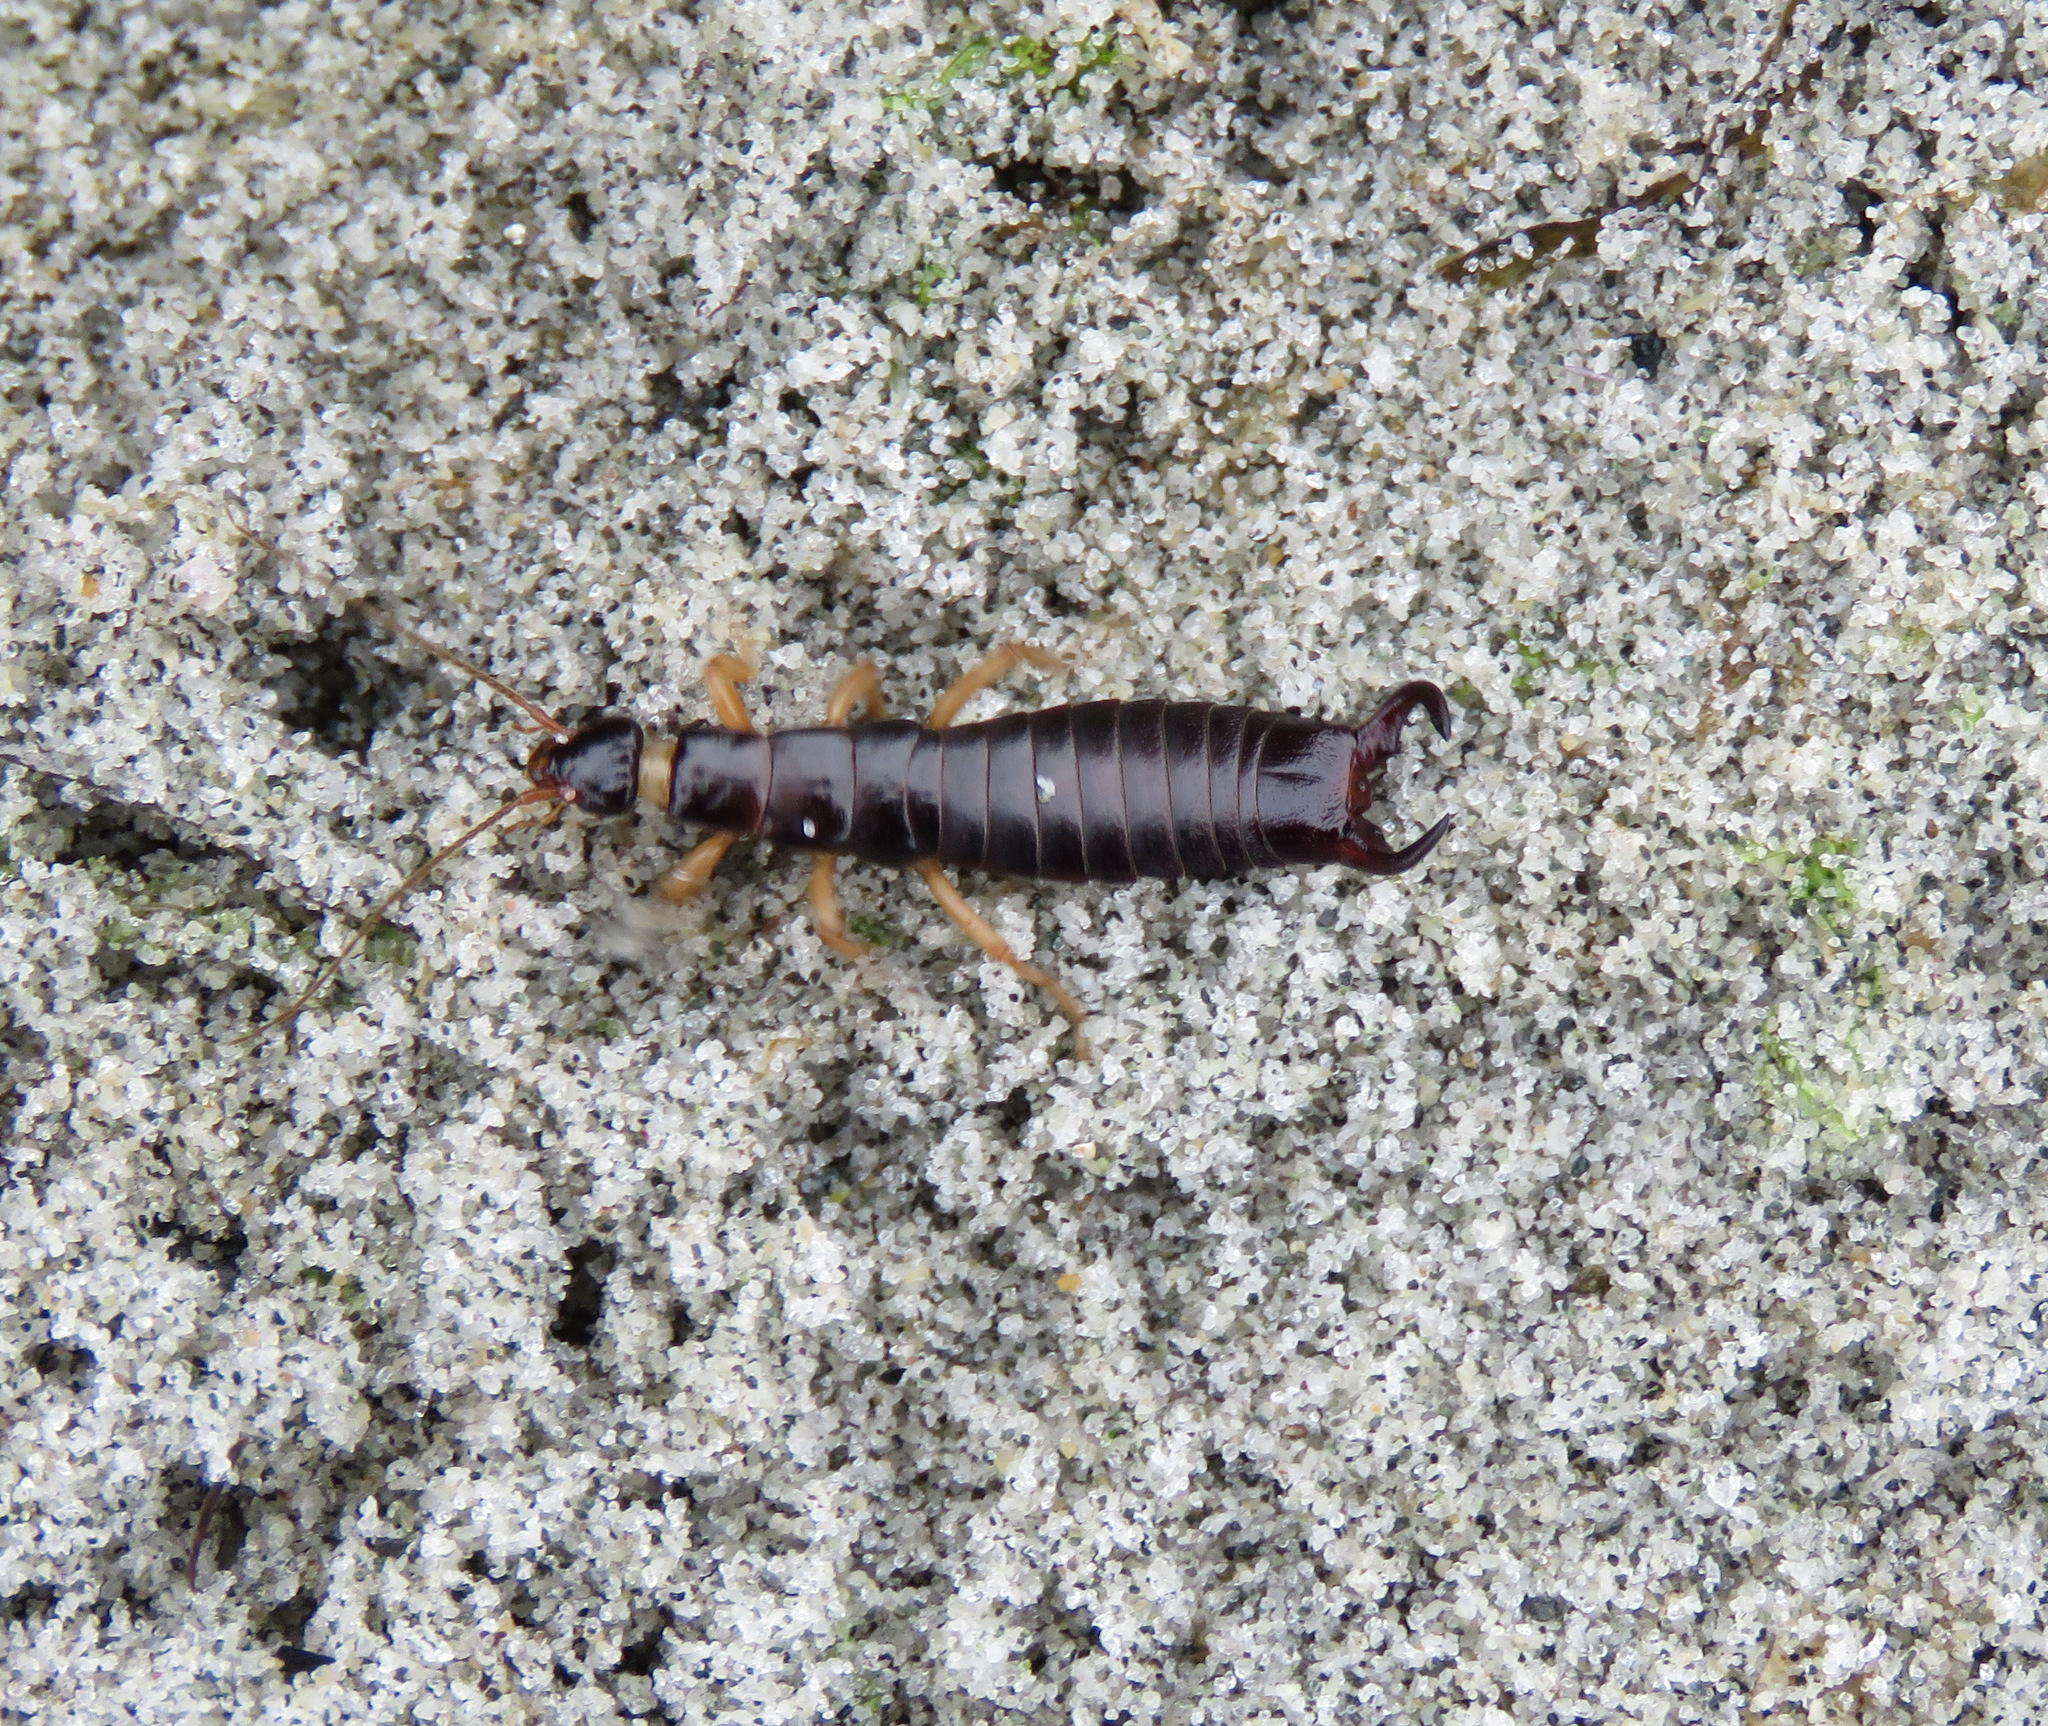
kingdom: Animalia
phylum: Arthropoda
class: Insecta
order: Dermaptera
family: Anisolabididae
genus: Anisolabis
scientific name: Anisolabis maritima
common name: Maritime earwig
